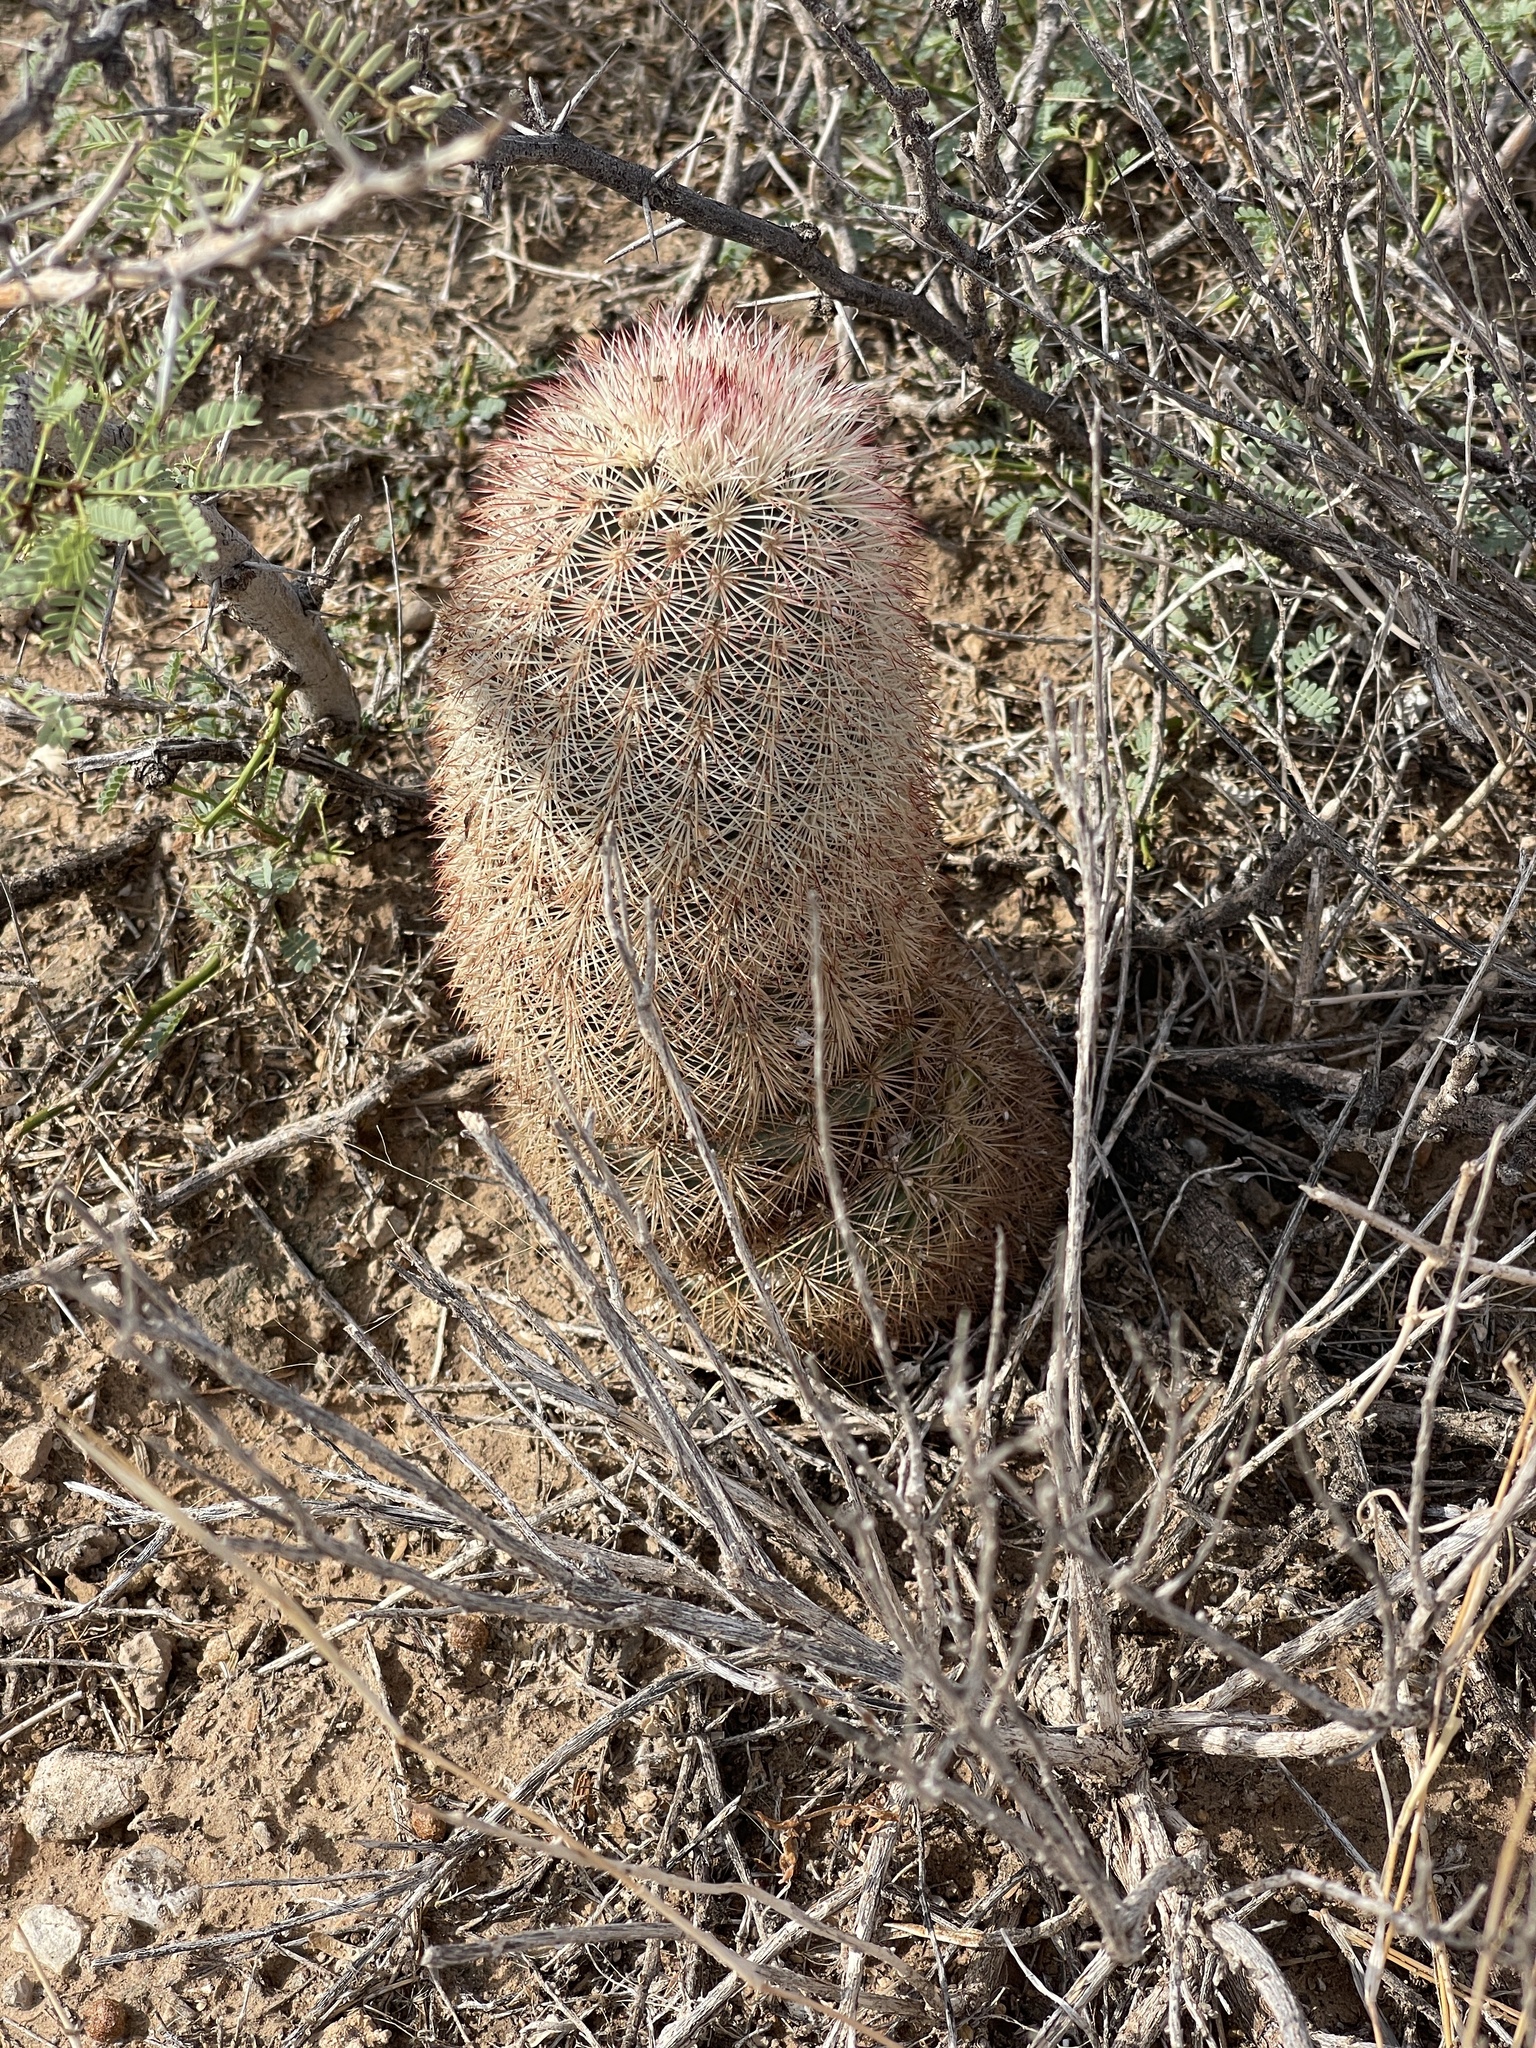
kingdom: Plantae
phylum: Tracheophyta
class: Magnoliopsida
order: Caryophyllales
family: Cactaceae
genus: Echinocereus
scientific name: Echinocereus dasyacanthus
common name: Spiny hedgehog cactus
